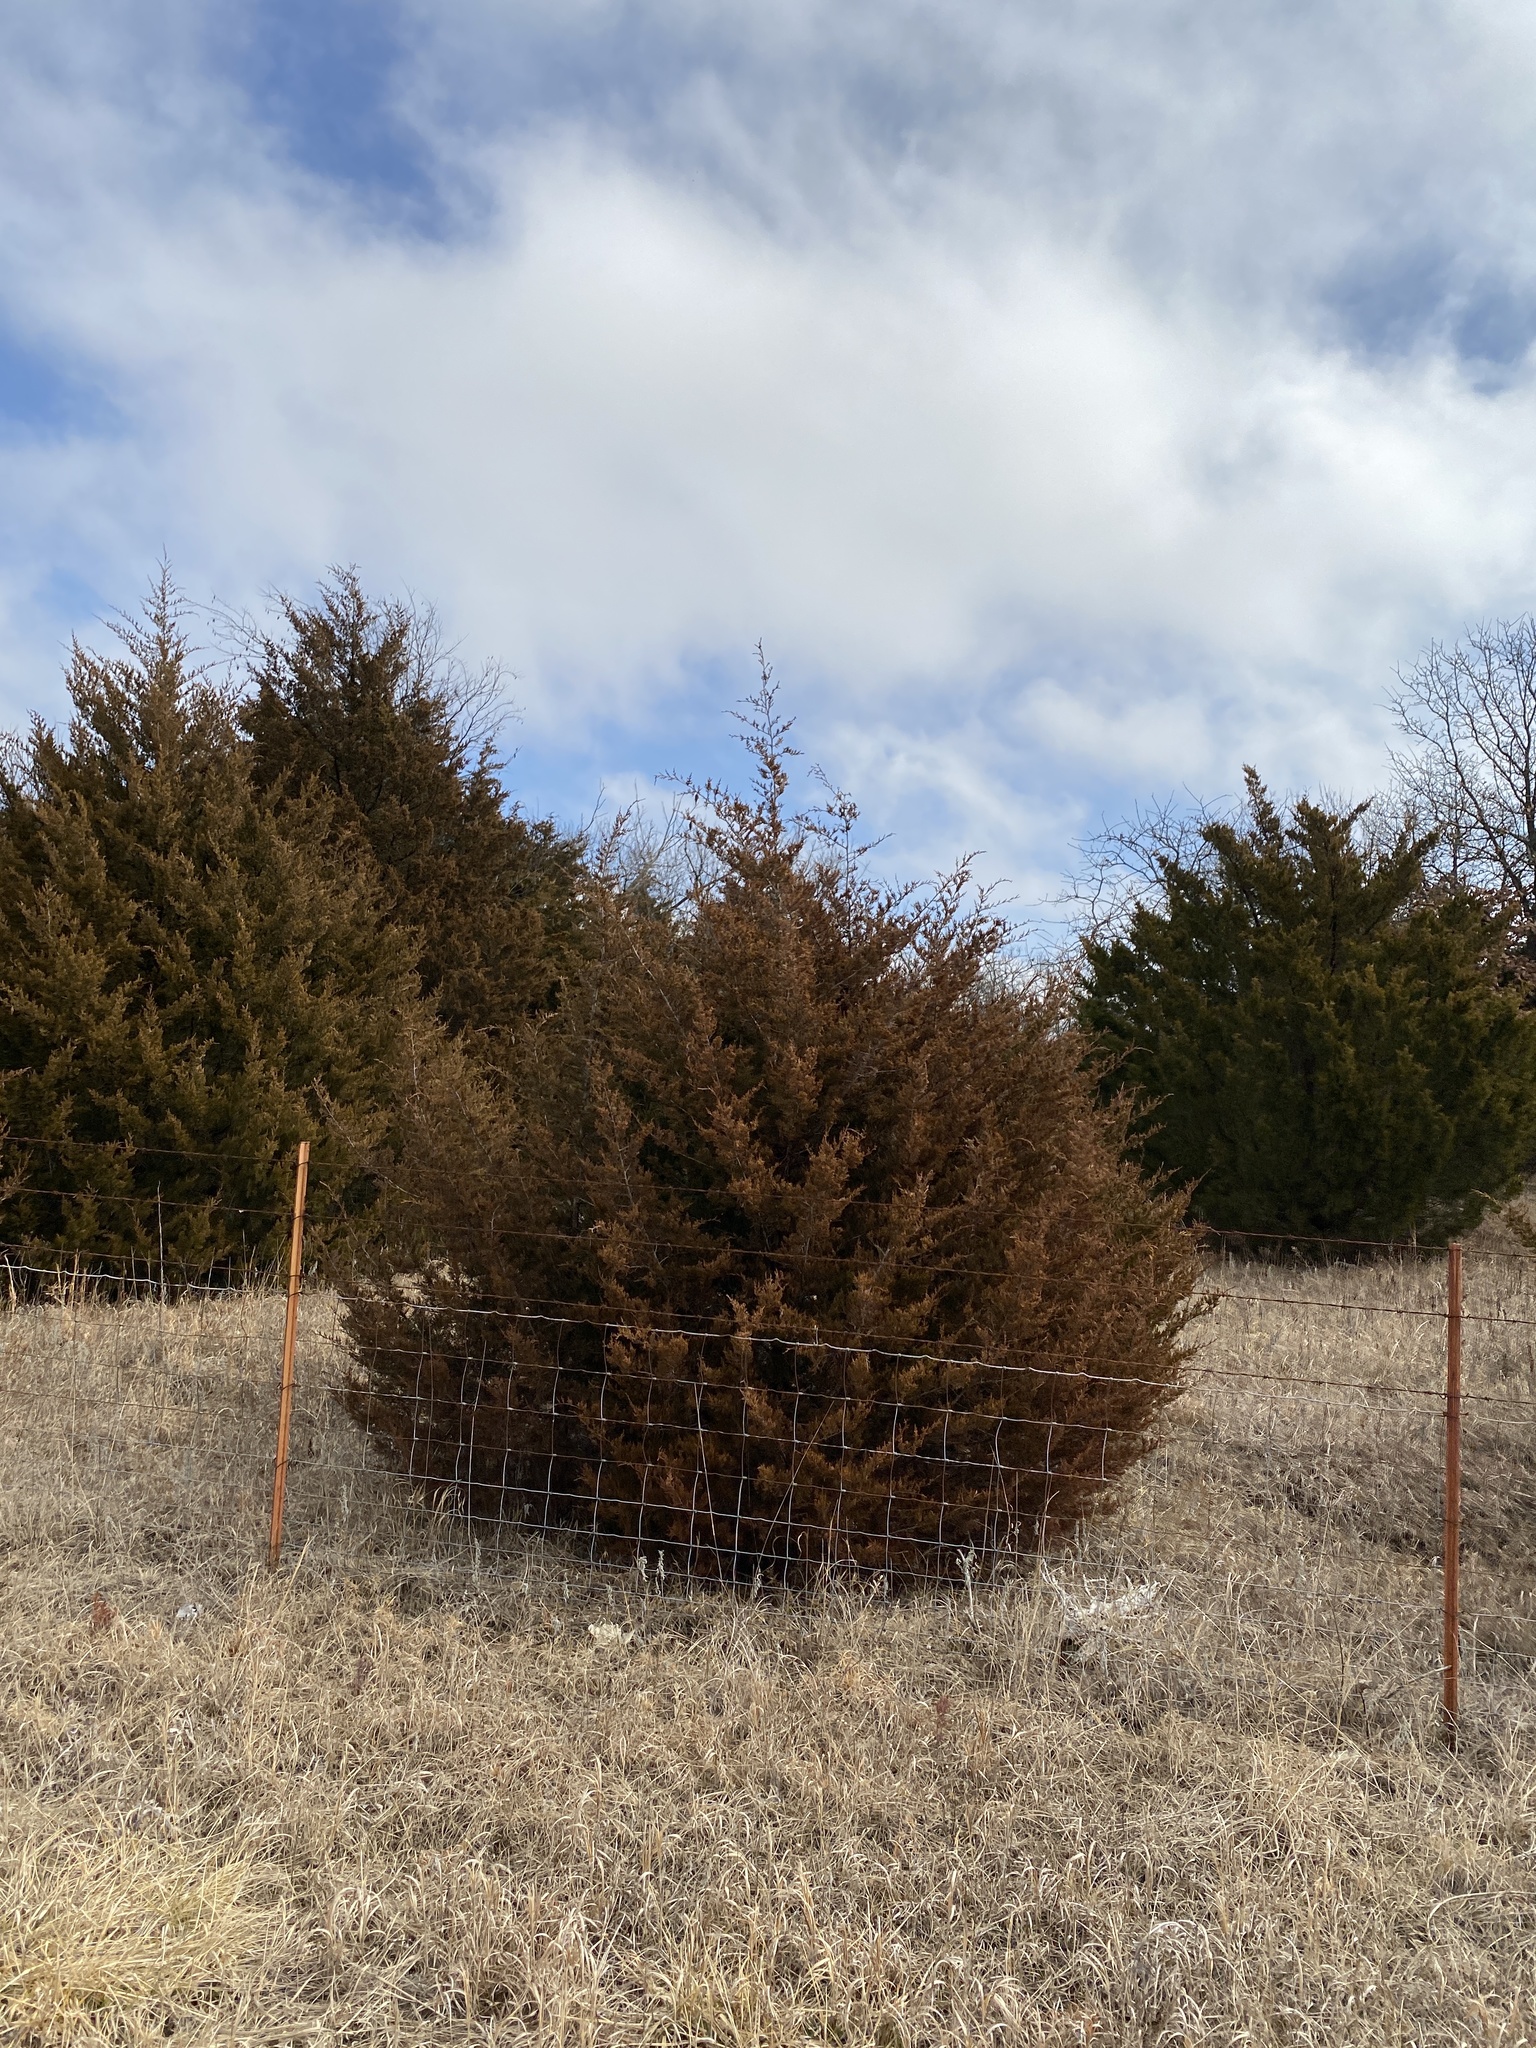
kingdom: Plantae
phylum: Tracheophyta
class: Pinopsida
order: Pinales
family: Cupressaceae
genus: Juniperus
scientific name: Juniperus virginiana
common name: Red juniper
